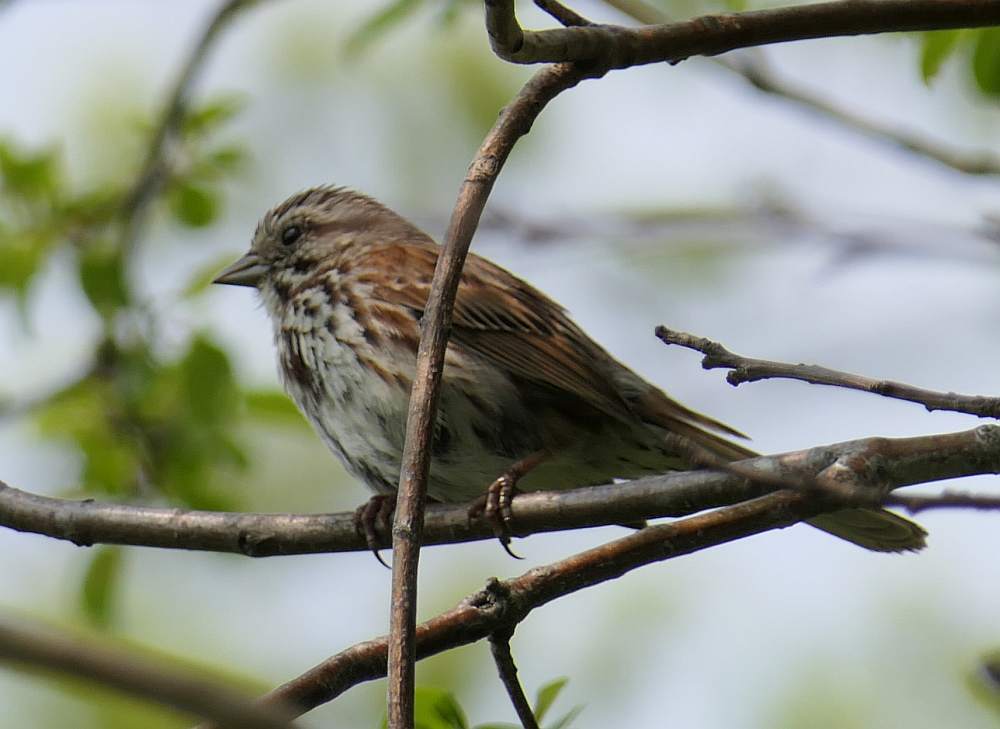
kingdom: Animalia
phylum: Chordata
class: Aves
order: Passeriformes
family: Passerellidae
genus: Melospiza
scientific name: Melospiza melodia
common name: Song sparrow
